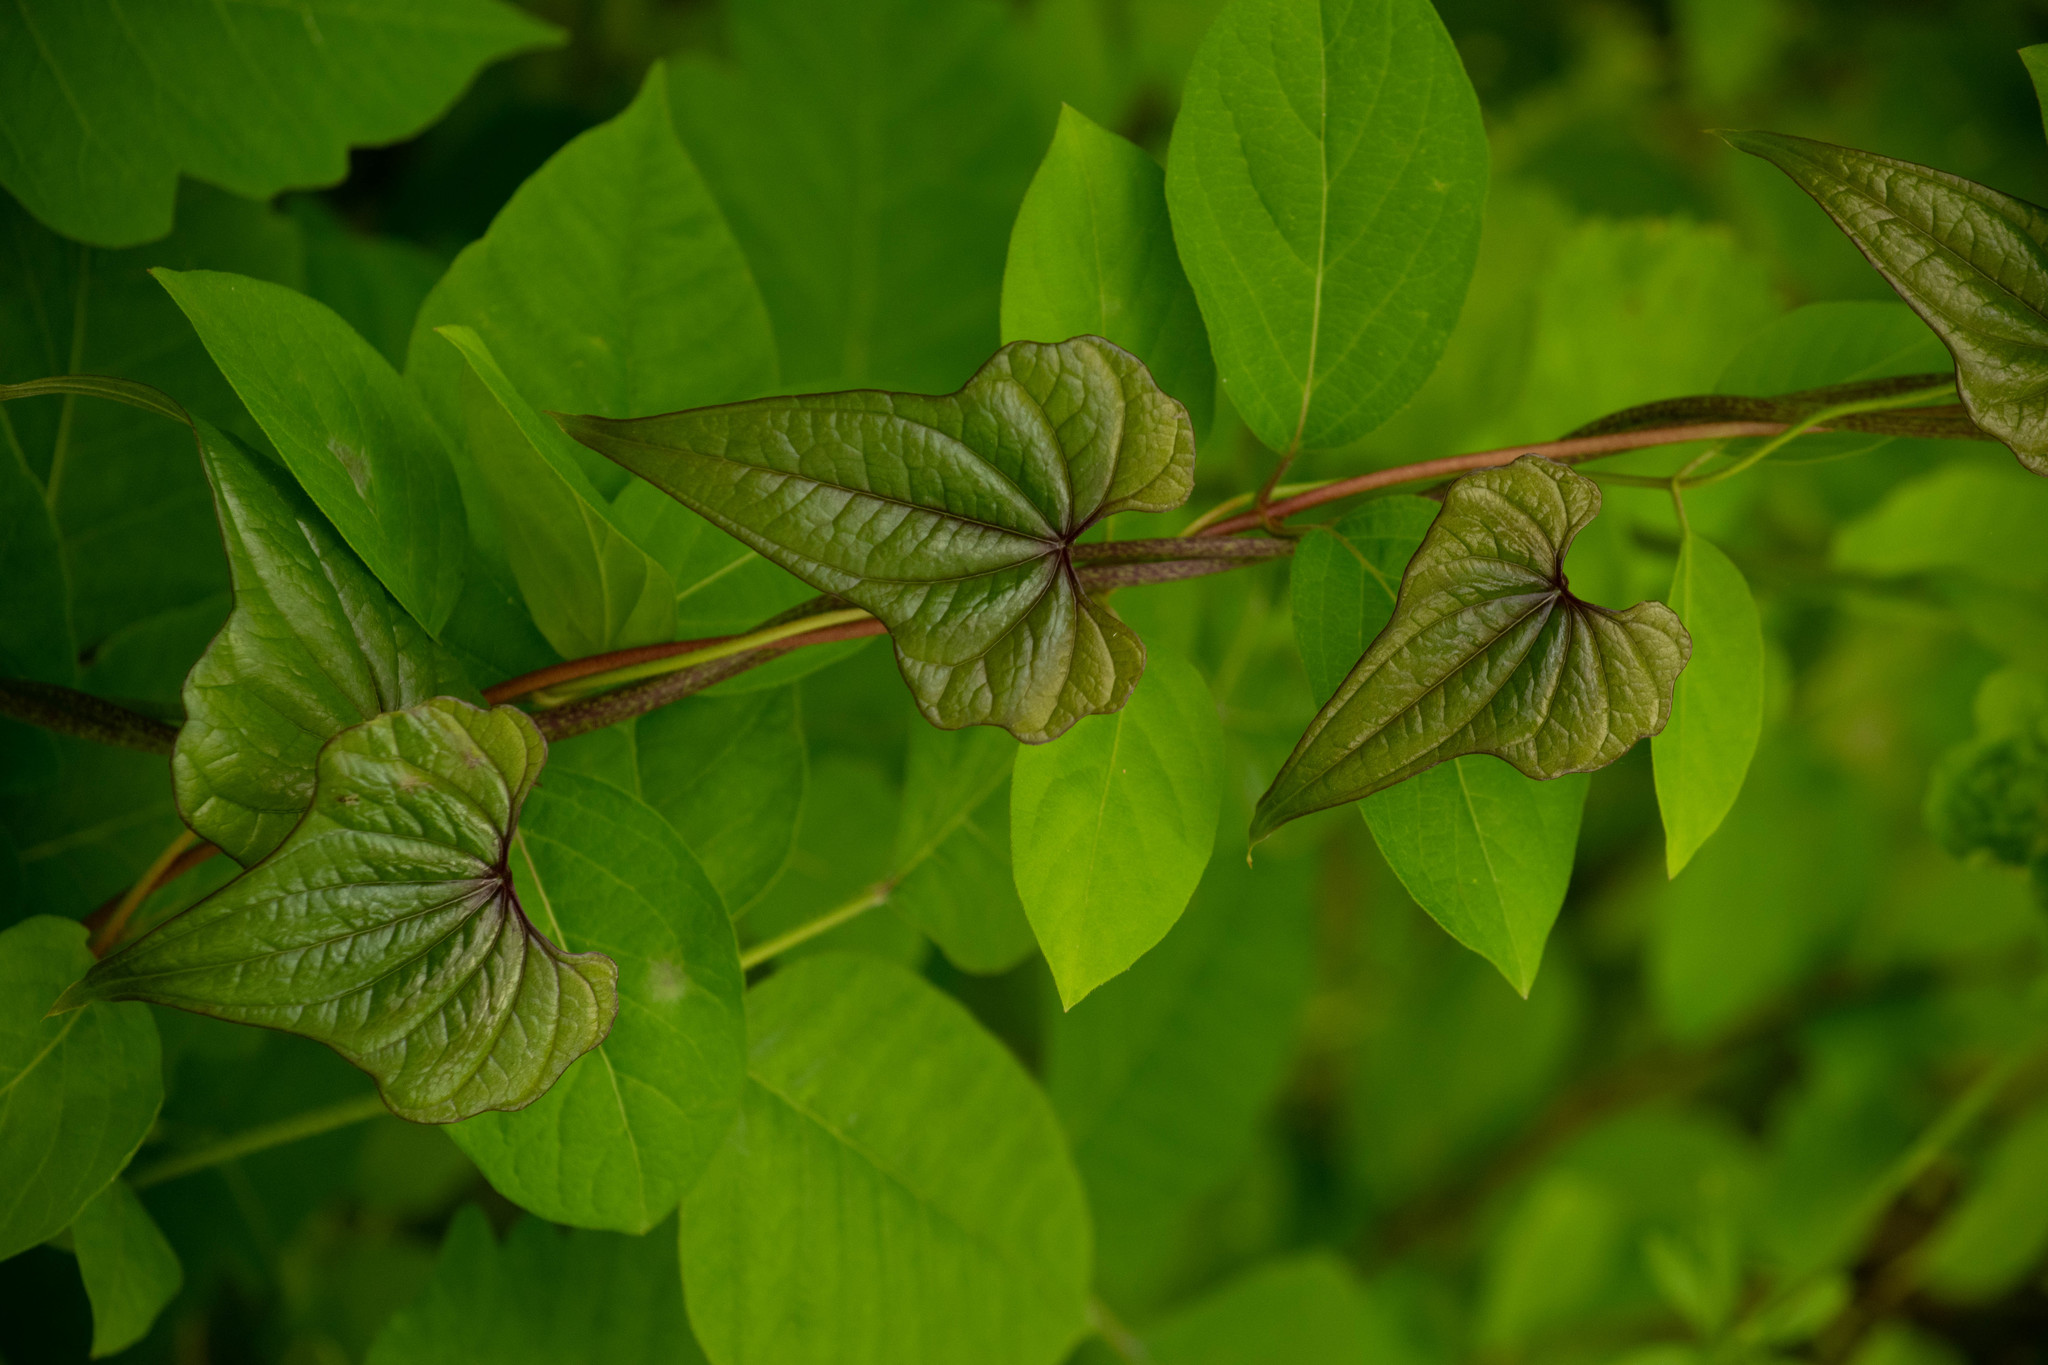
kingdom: Plantae
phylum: Tracheophyta
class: Liliopsida
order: Dioscoreales
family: Dioscoreaceae
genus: Dioscorea
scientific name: Dioscorea polystachya
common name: Chinese yam
